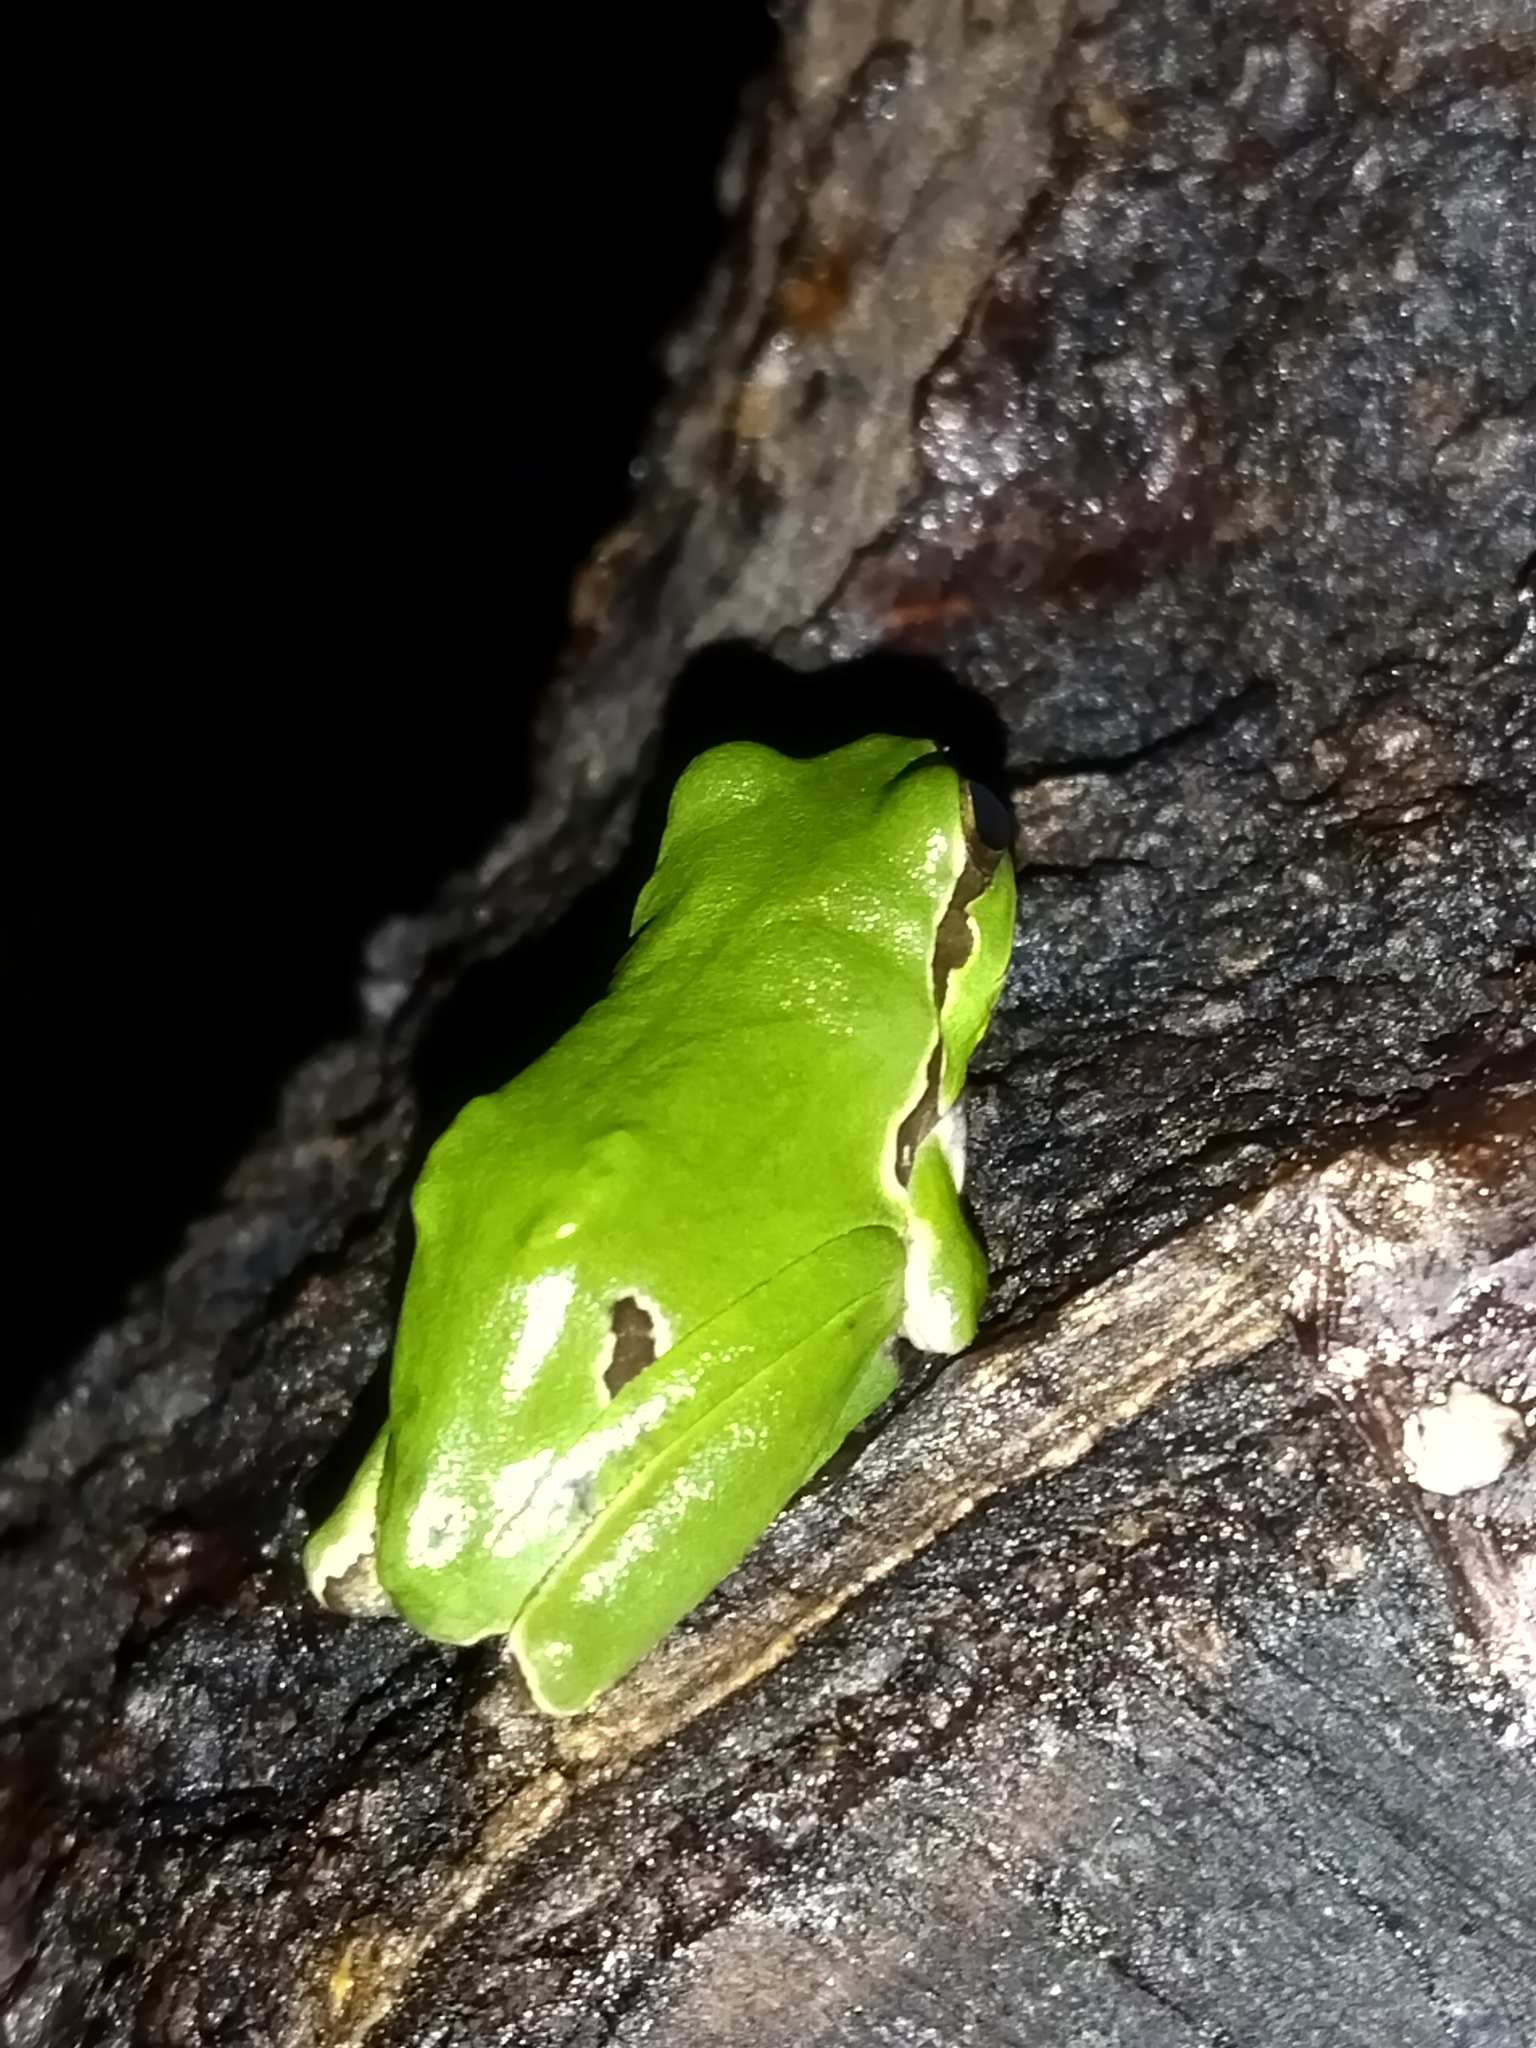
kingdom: Animalia
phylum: Chordata
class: Amphibia
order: Anura
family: Hylidae
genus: Hyla
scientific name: Hyla orientalis
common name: Caucasian treefrog
